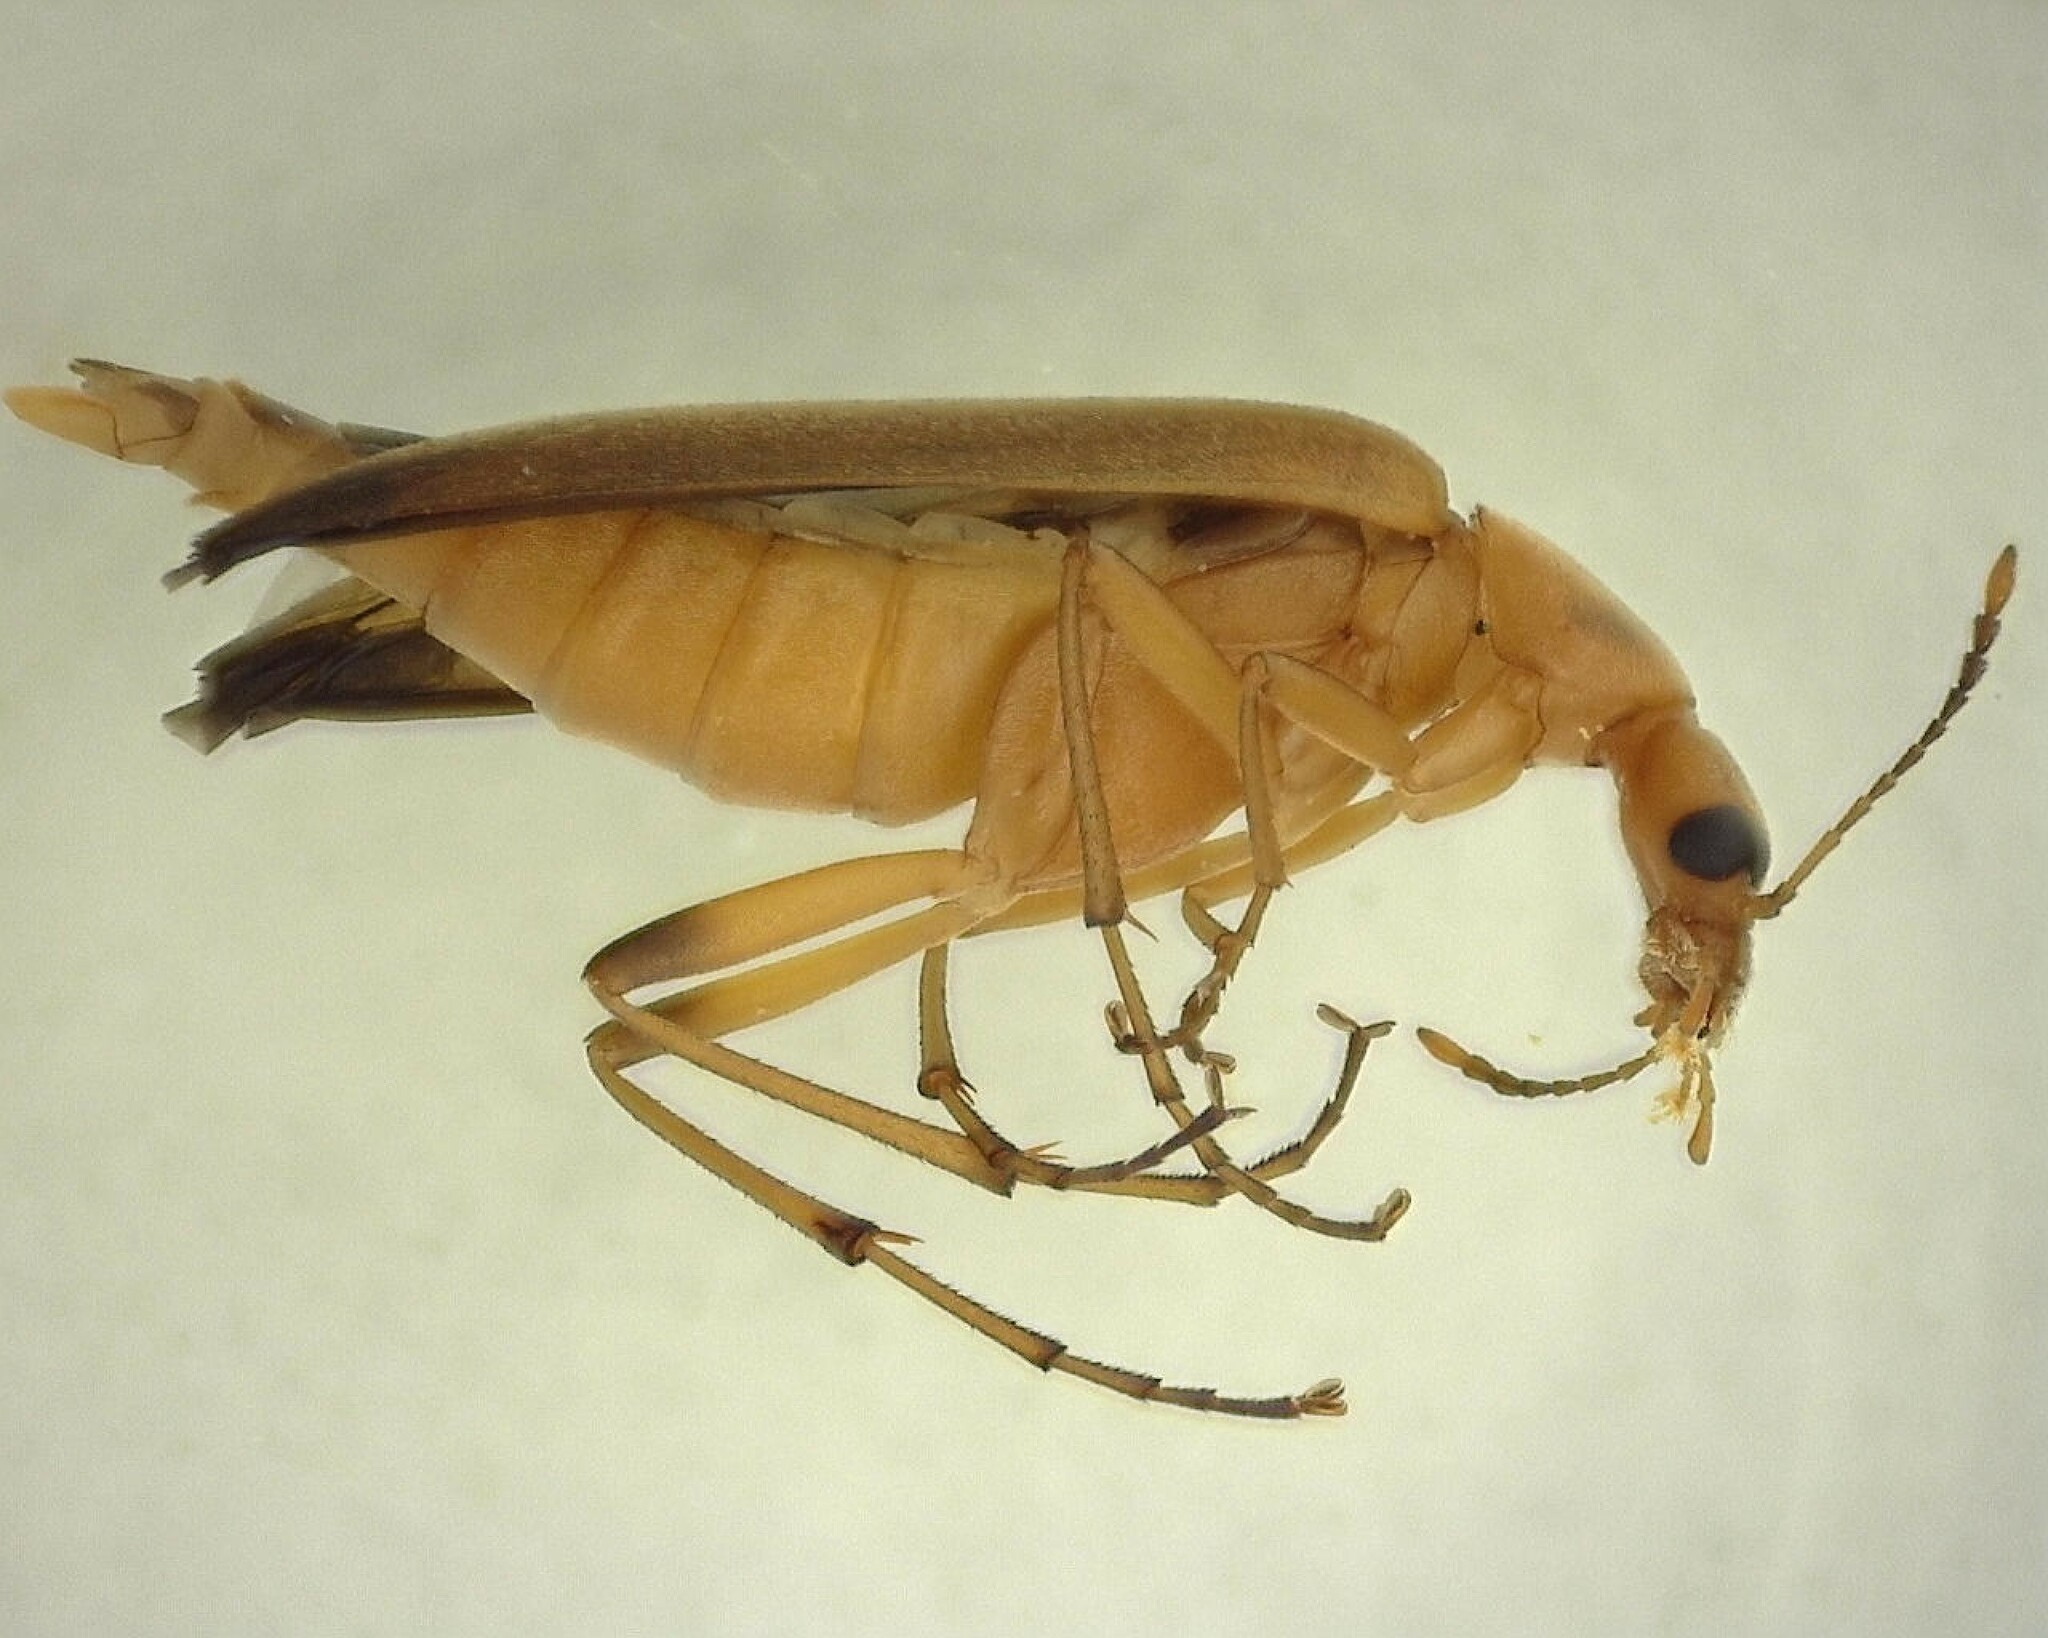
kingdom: Animalia
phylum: Arthropoda
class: Insecta
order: Coleoptera
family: Stenotrachelidae
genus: Cephaloon
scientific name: Cephaloon lepturides
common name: False leptura beetle
